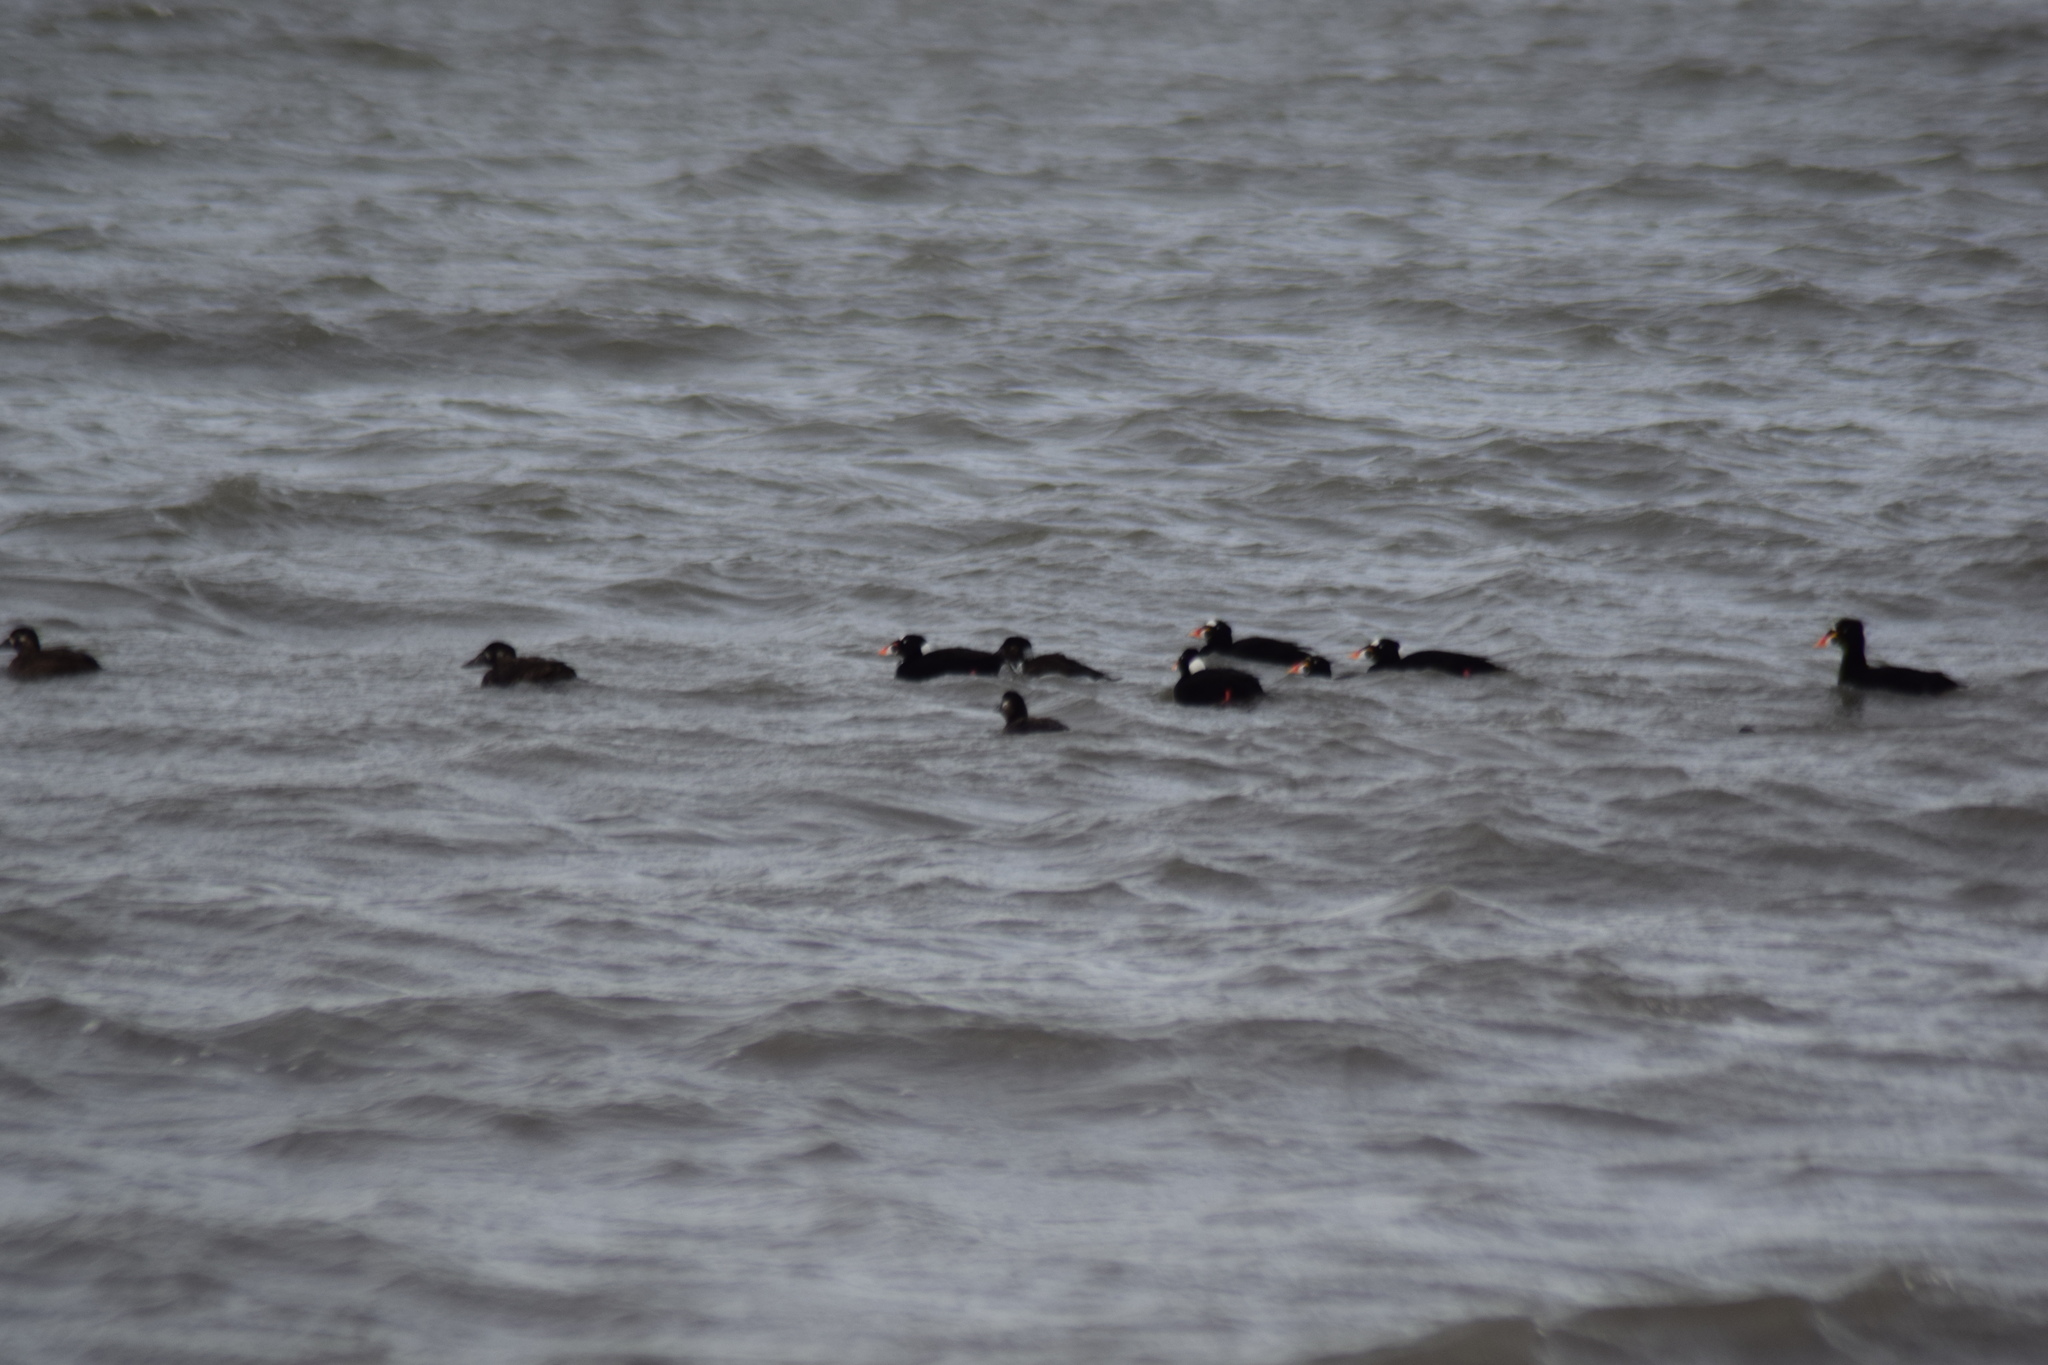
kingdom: Animalia
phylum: Chordata
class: Aves
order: Anseriformes
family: Anatidae
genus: Melanitta
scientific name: Melanitta perspicillata
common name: Surf scoter
